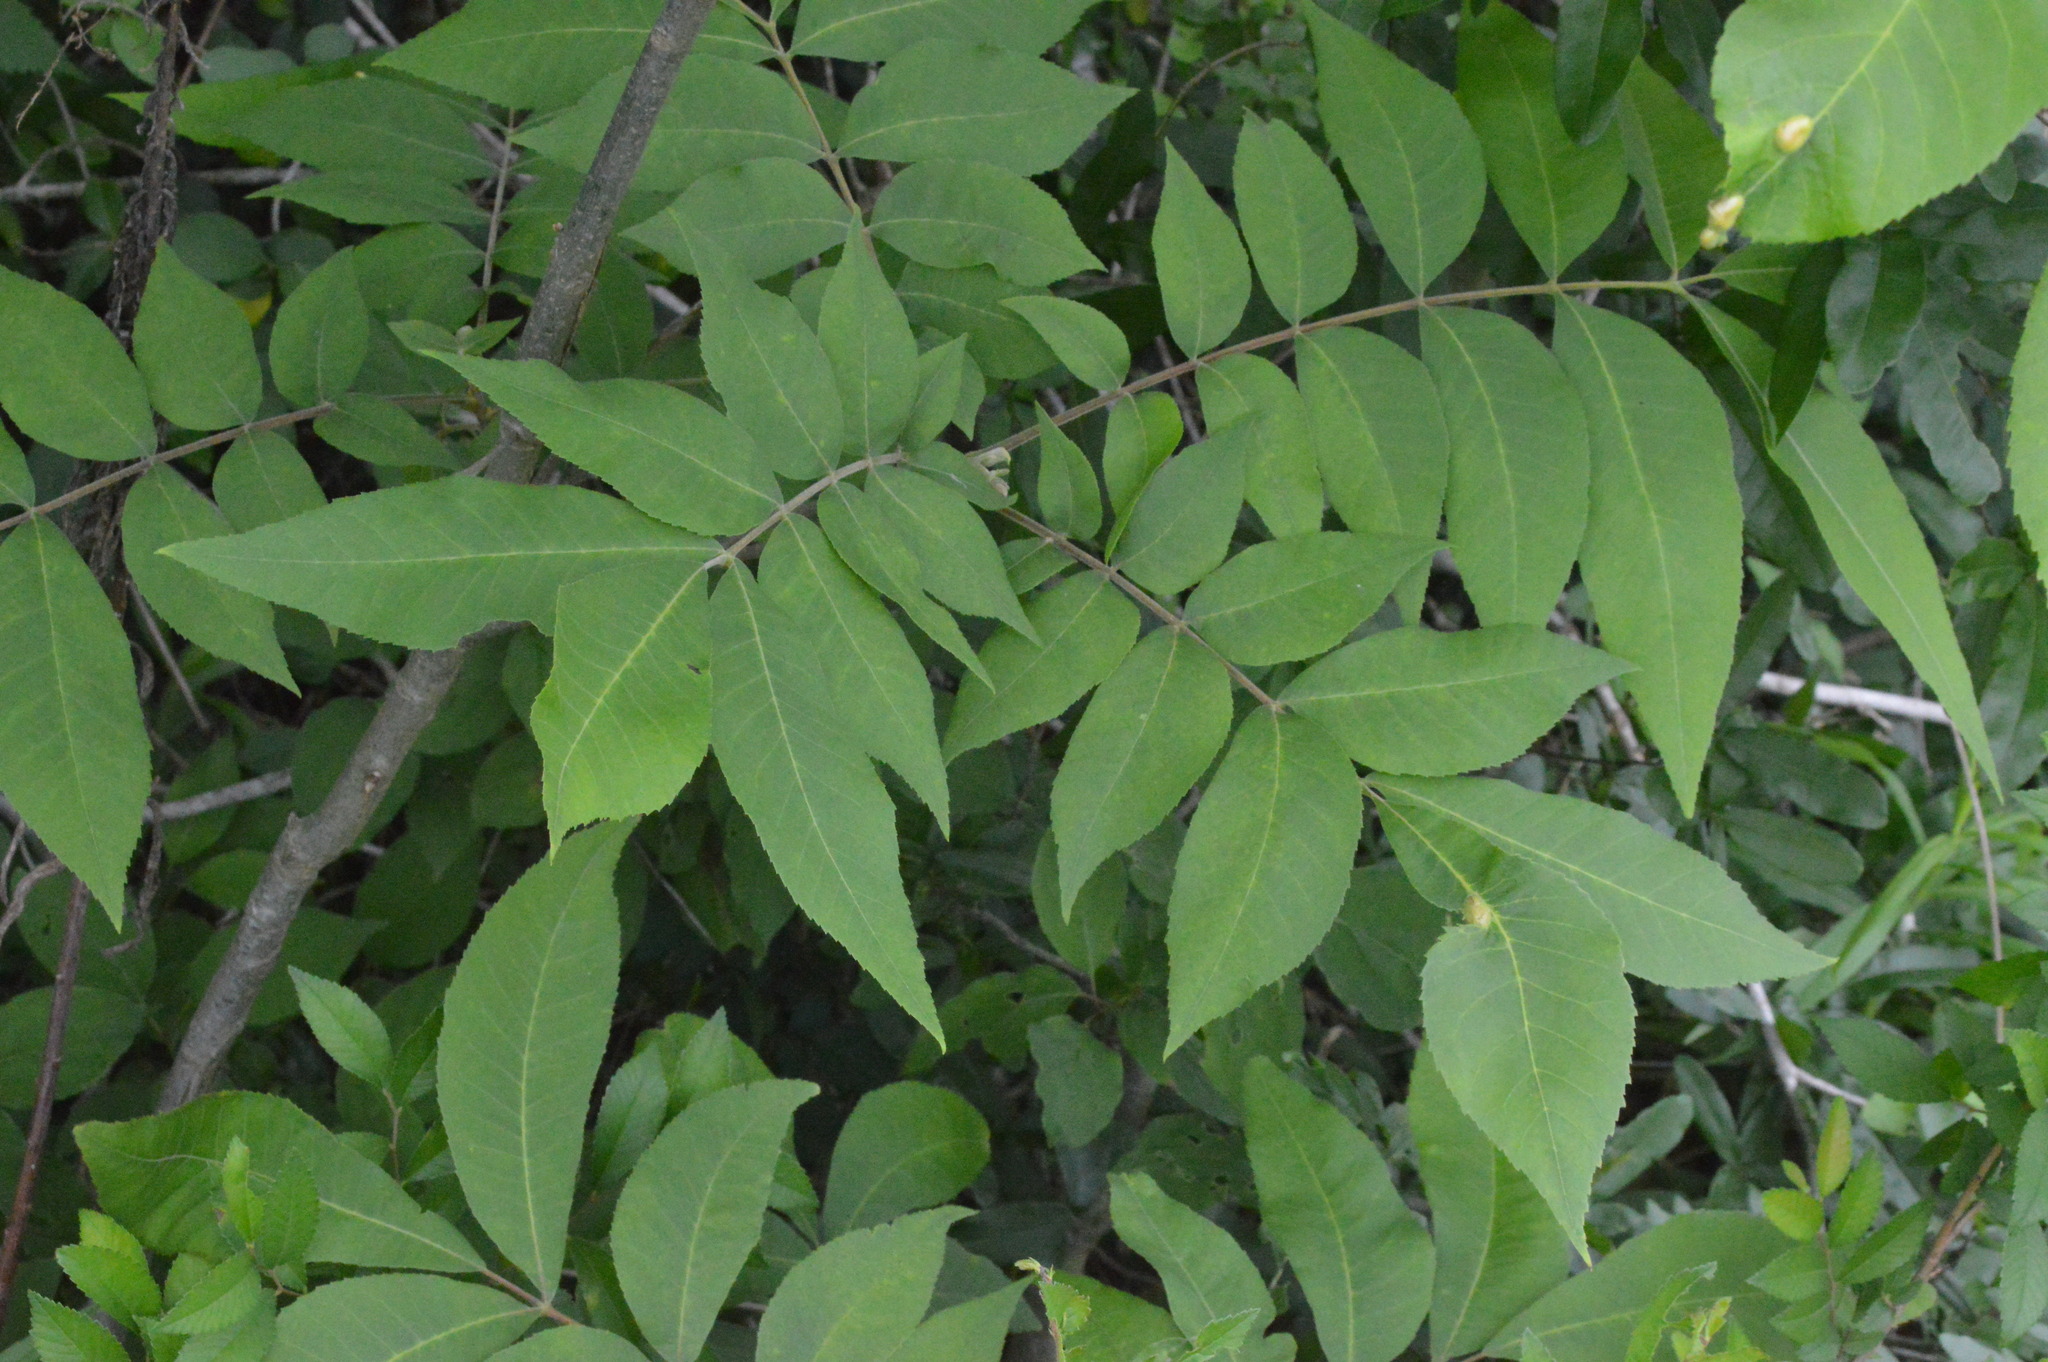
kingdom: Plantae
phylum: Tracheophyta
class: Magnoliopsida
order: Fagales
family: Juglandaceae
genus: Carya
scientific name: Carya illinoinensis
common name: Pecan
